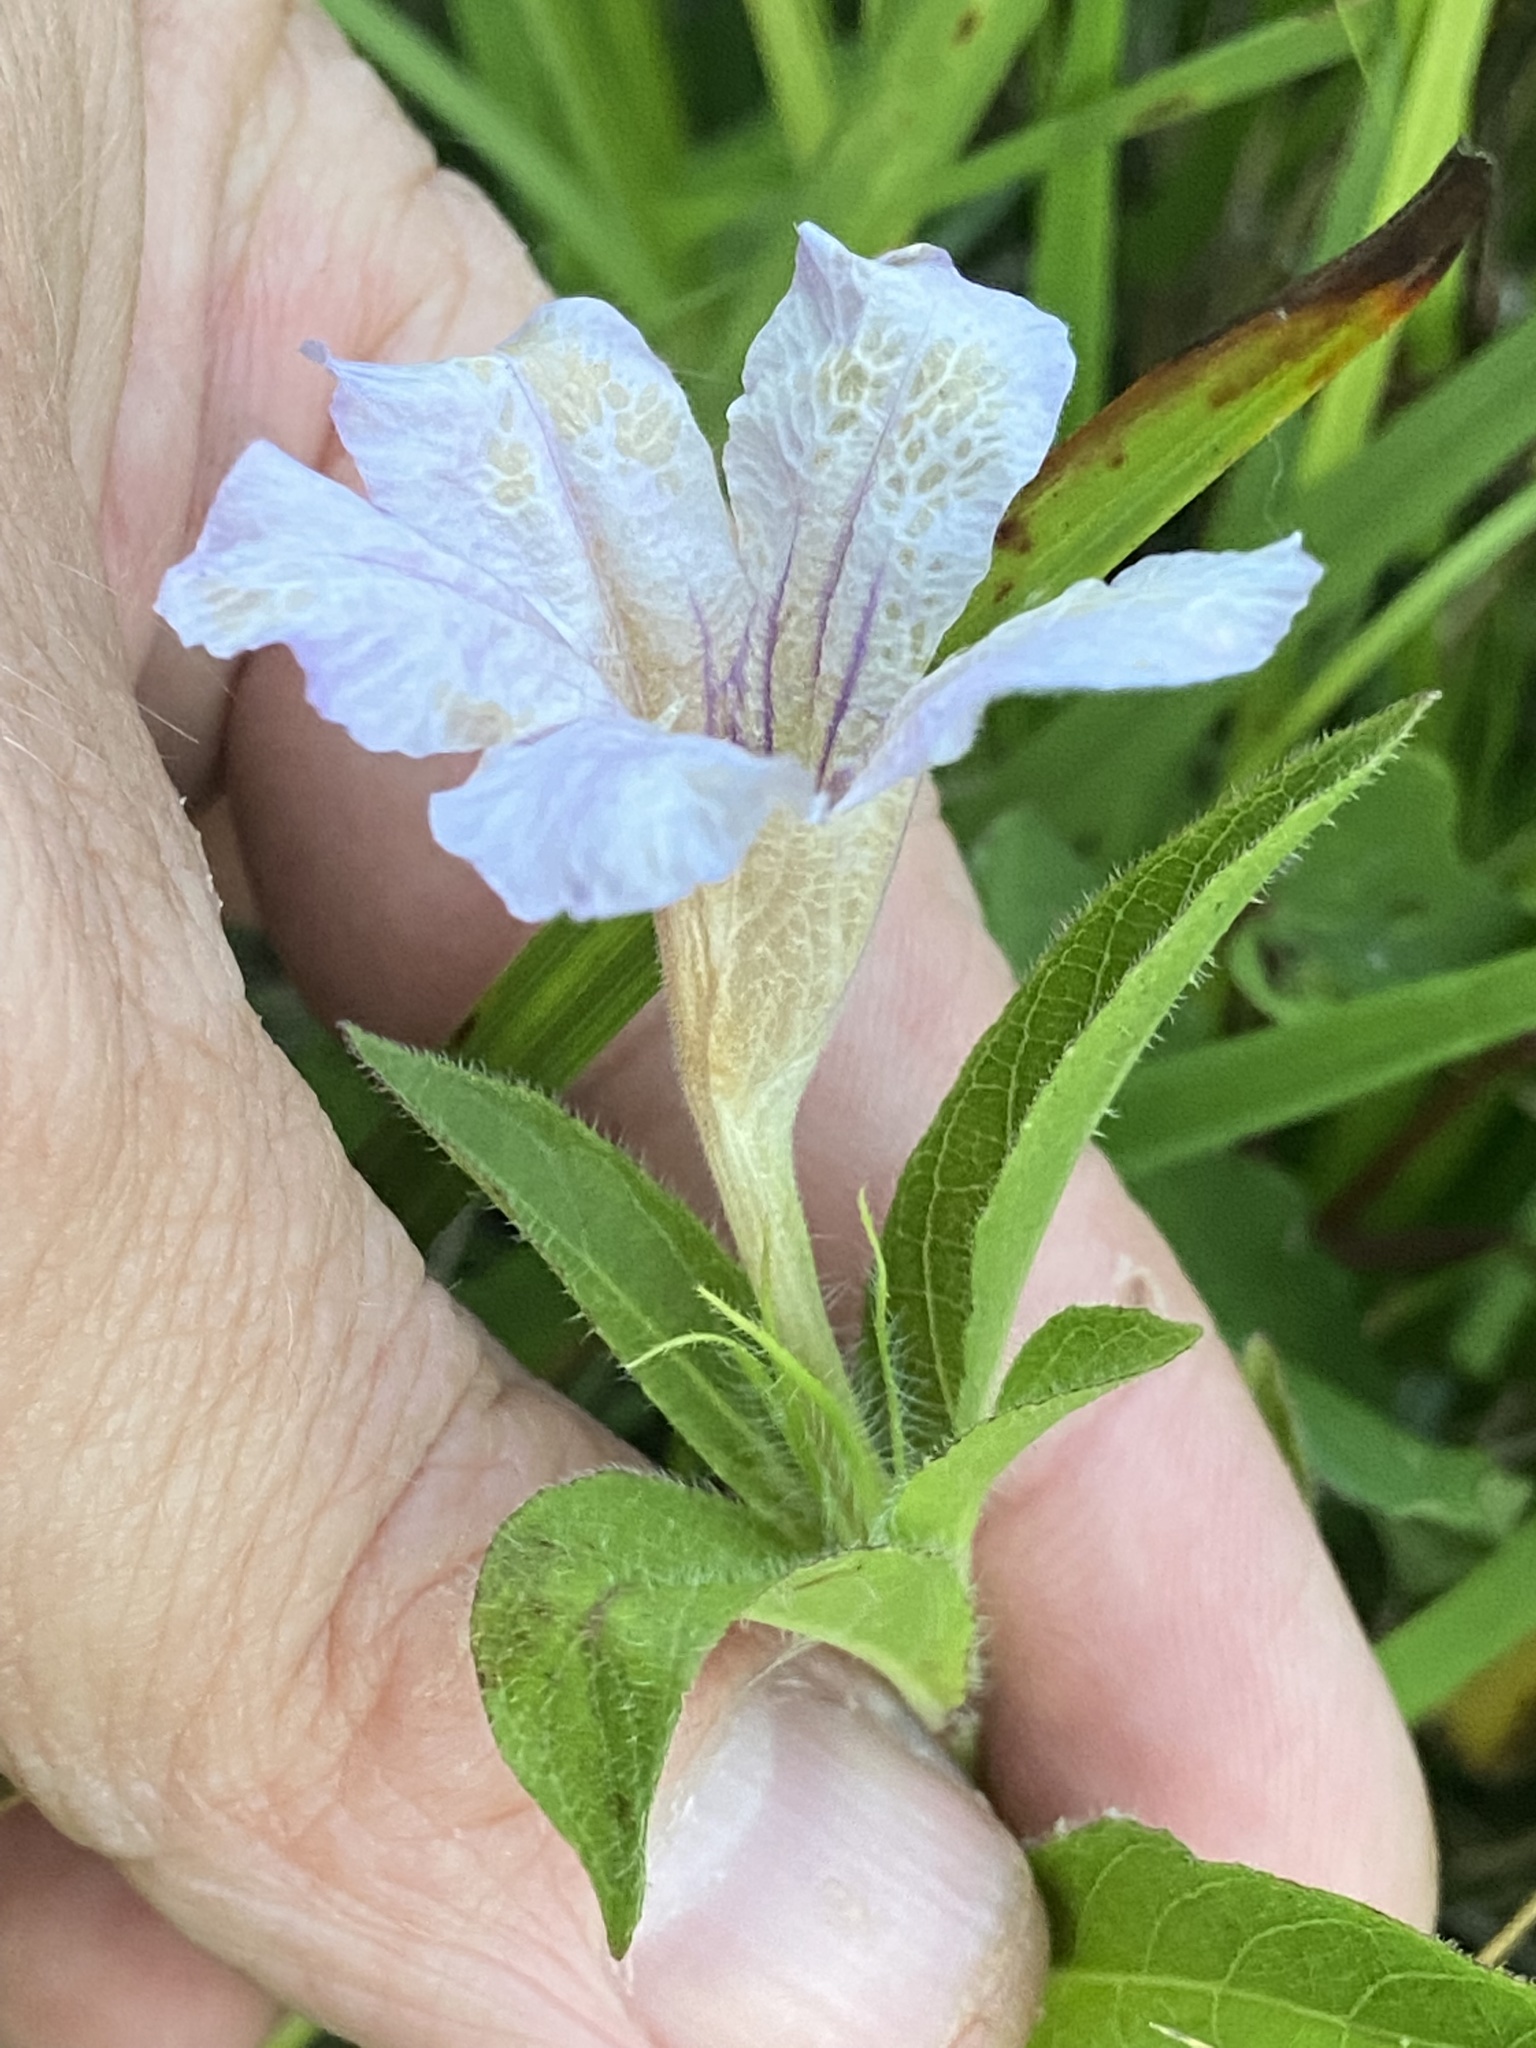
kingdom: Plantae
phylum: Tracheophyta
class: Magnoliopsida
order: Lamiales
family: Acanthaceae
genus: Ruellia
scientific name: Ruellia humilis
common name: Fringe-leaf ruellia
